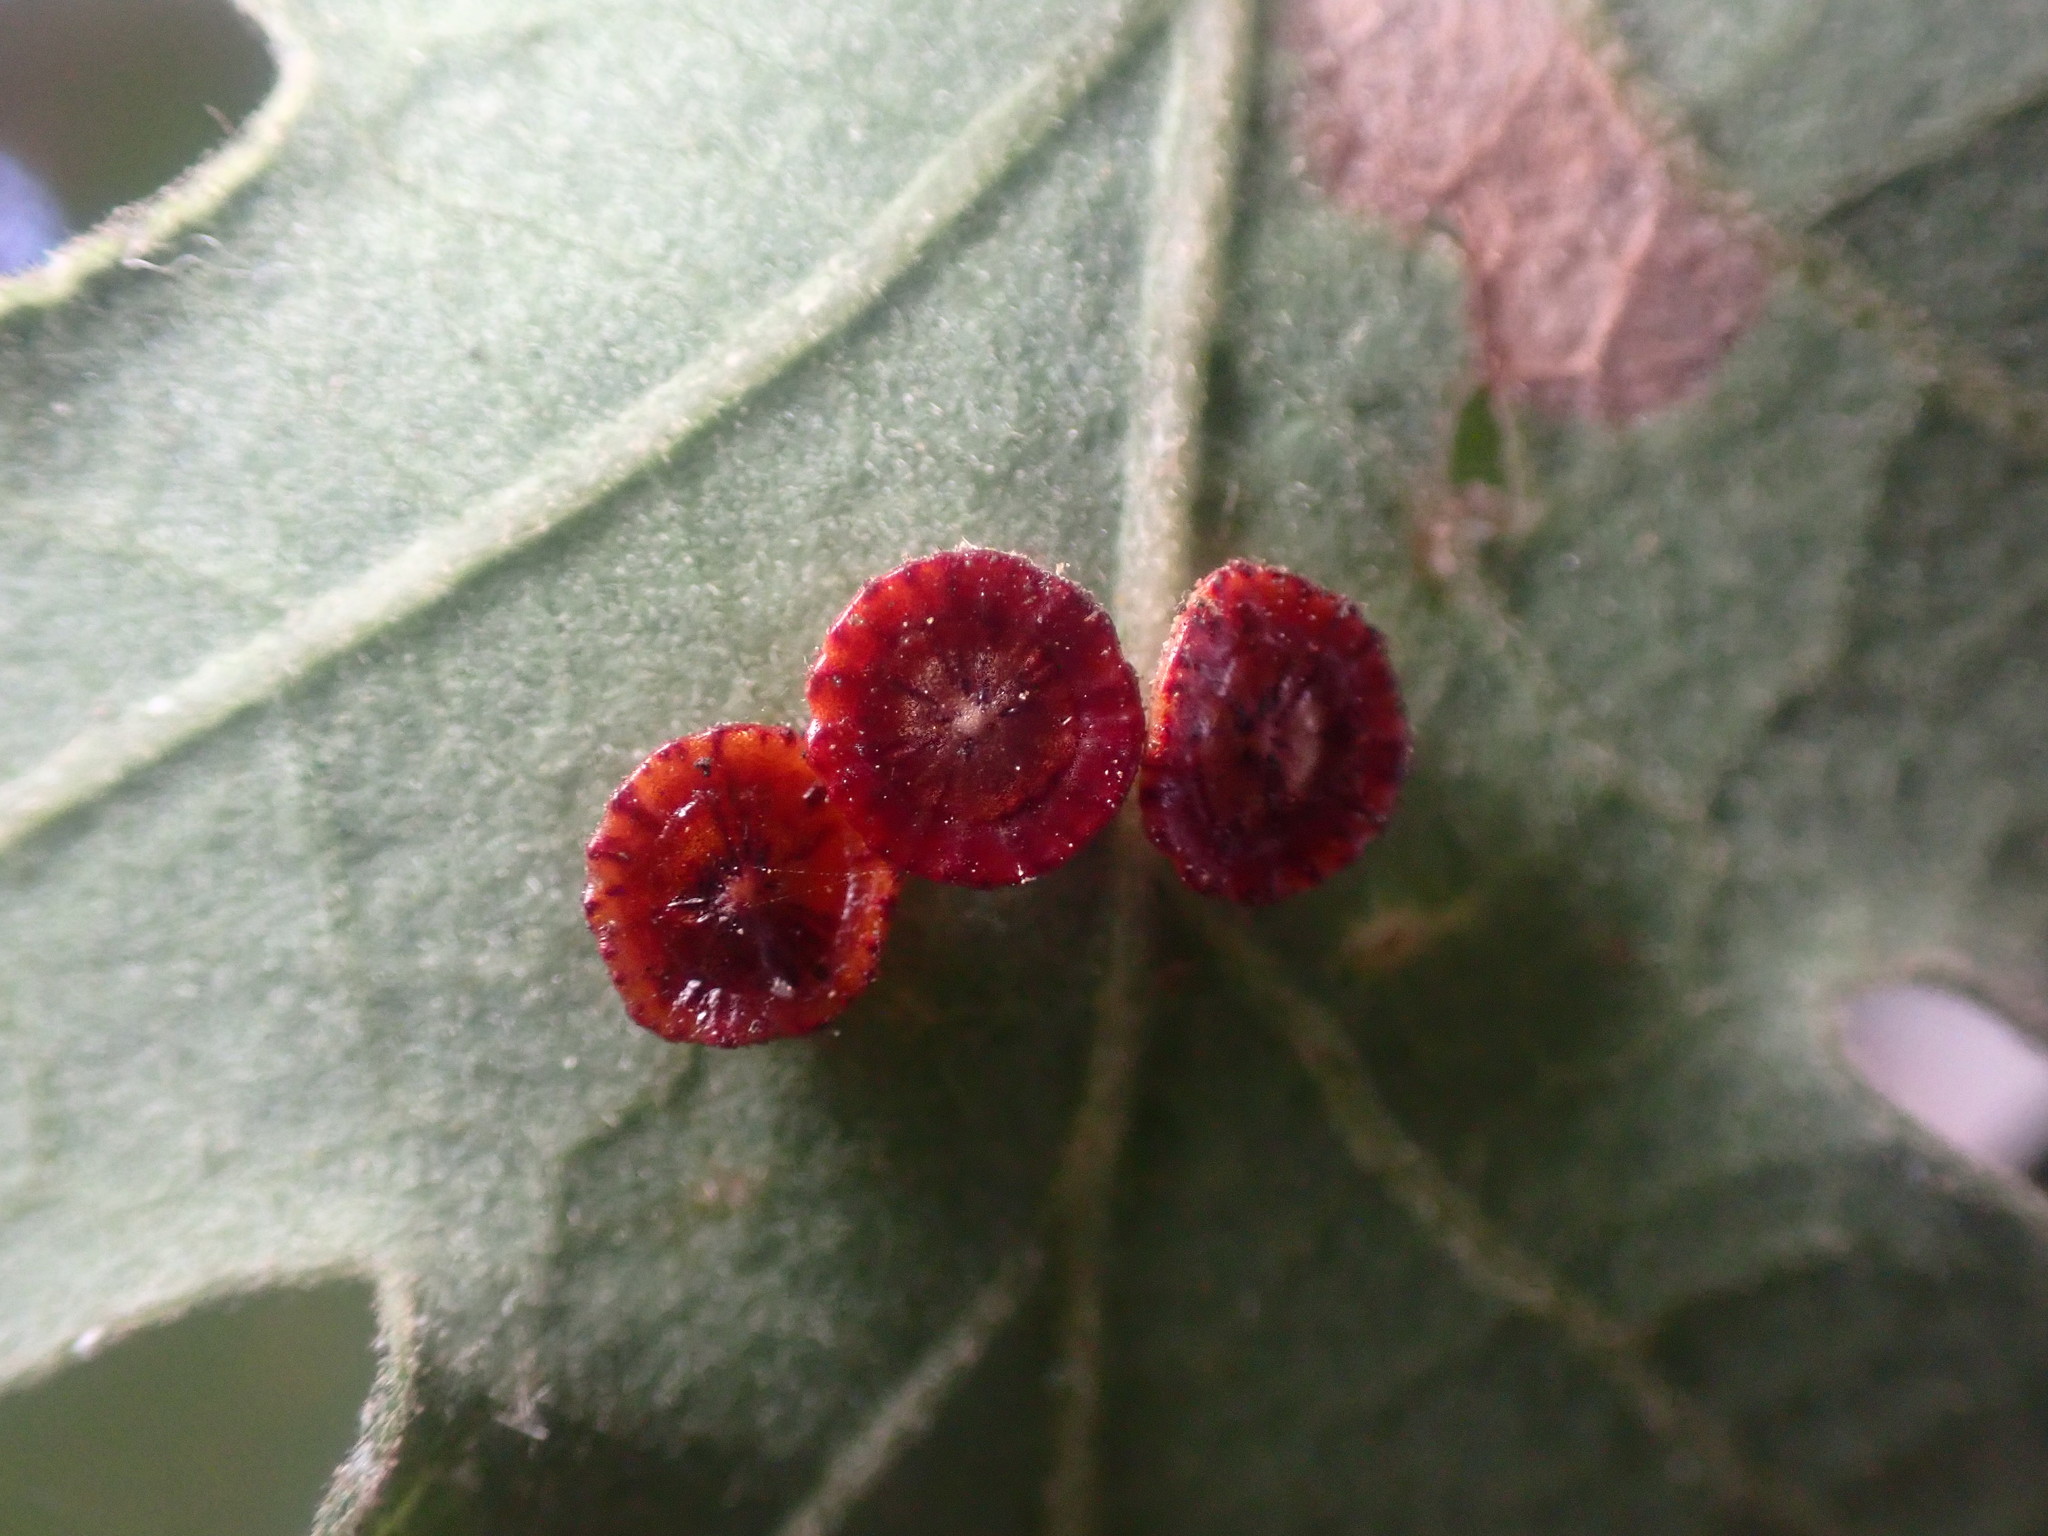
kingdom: Animalia
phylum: Arthropoda
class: Insecta
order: Hymenoptera
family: Cynipidae
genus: Andricus
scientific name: Andricus
